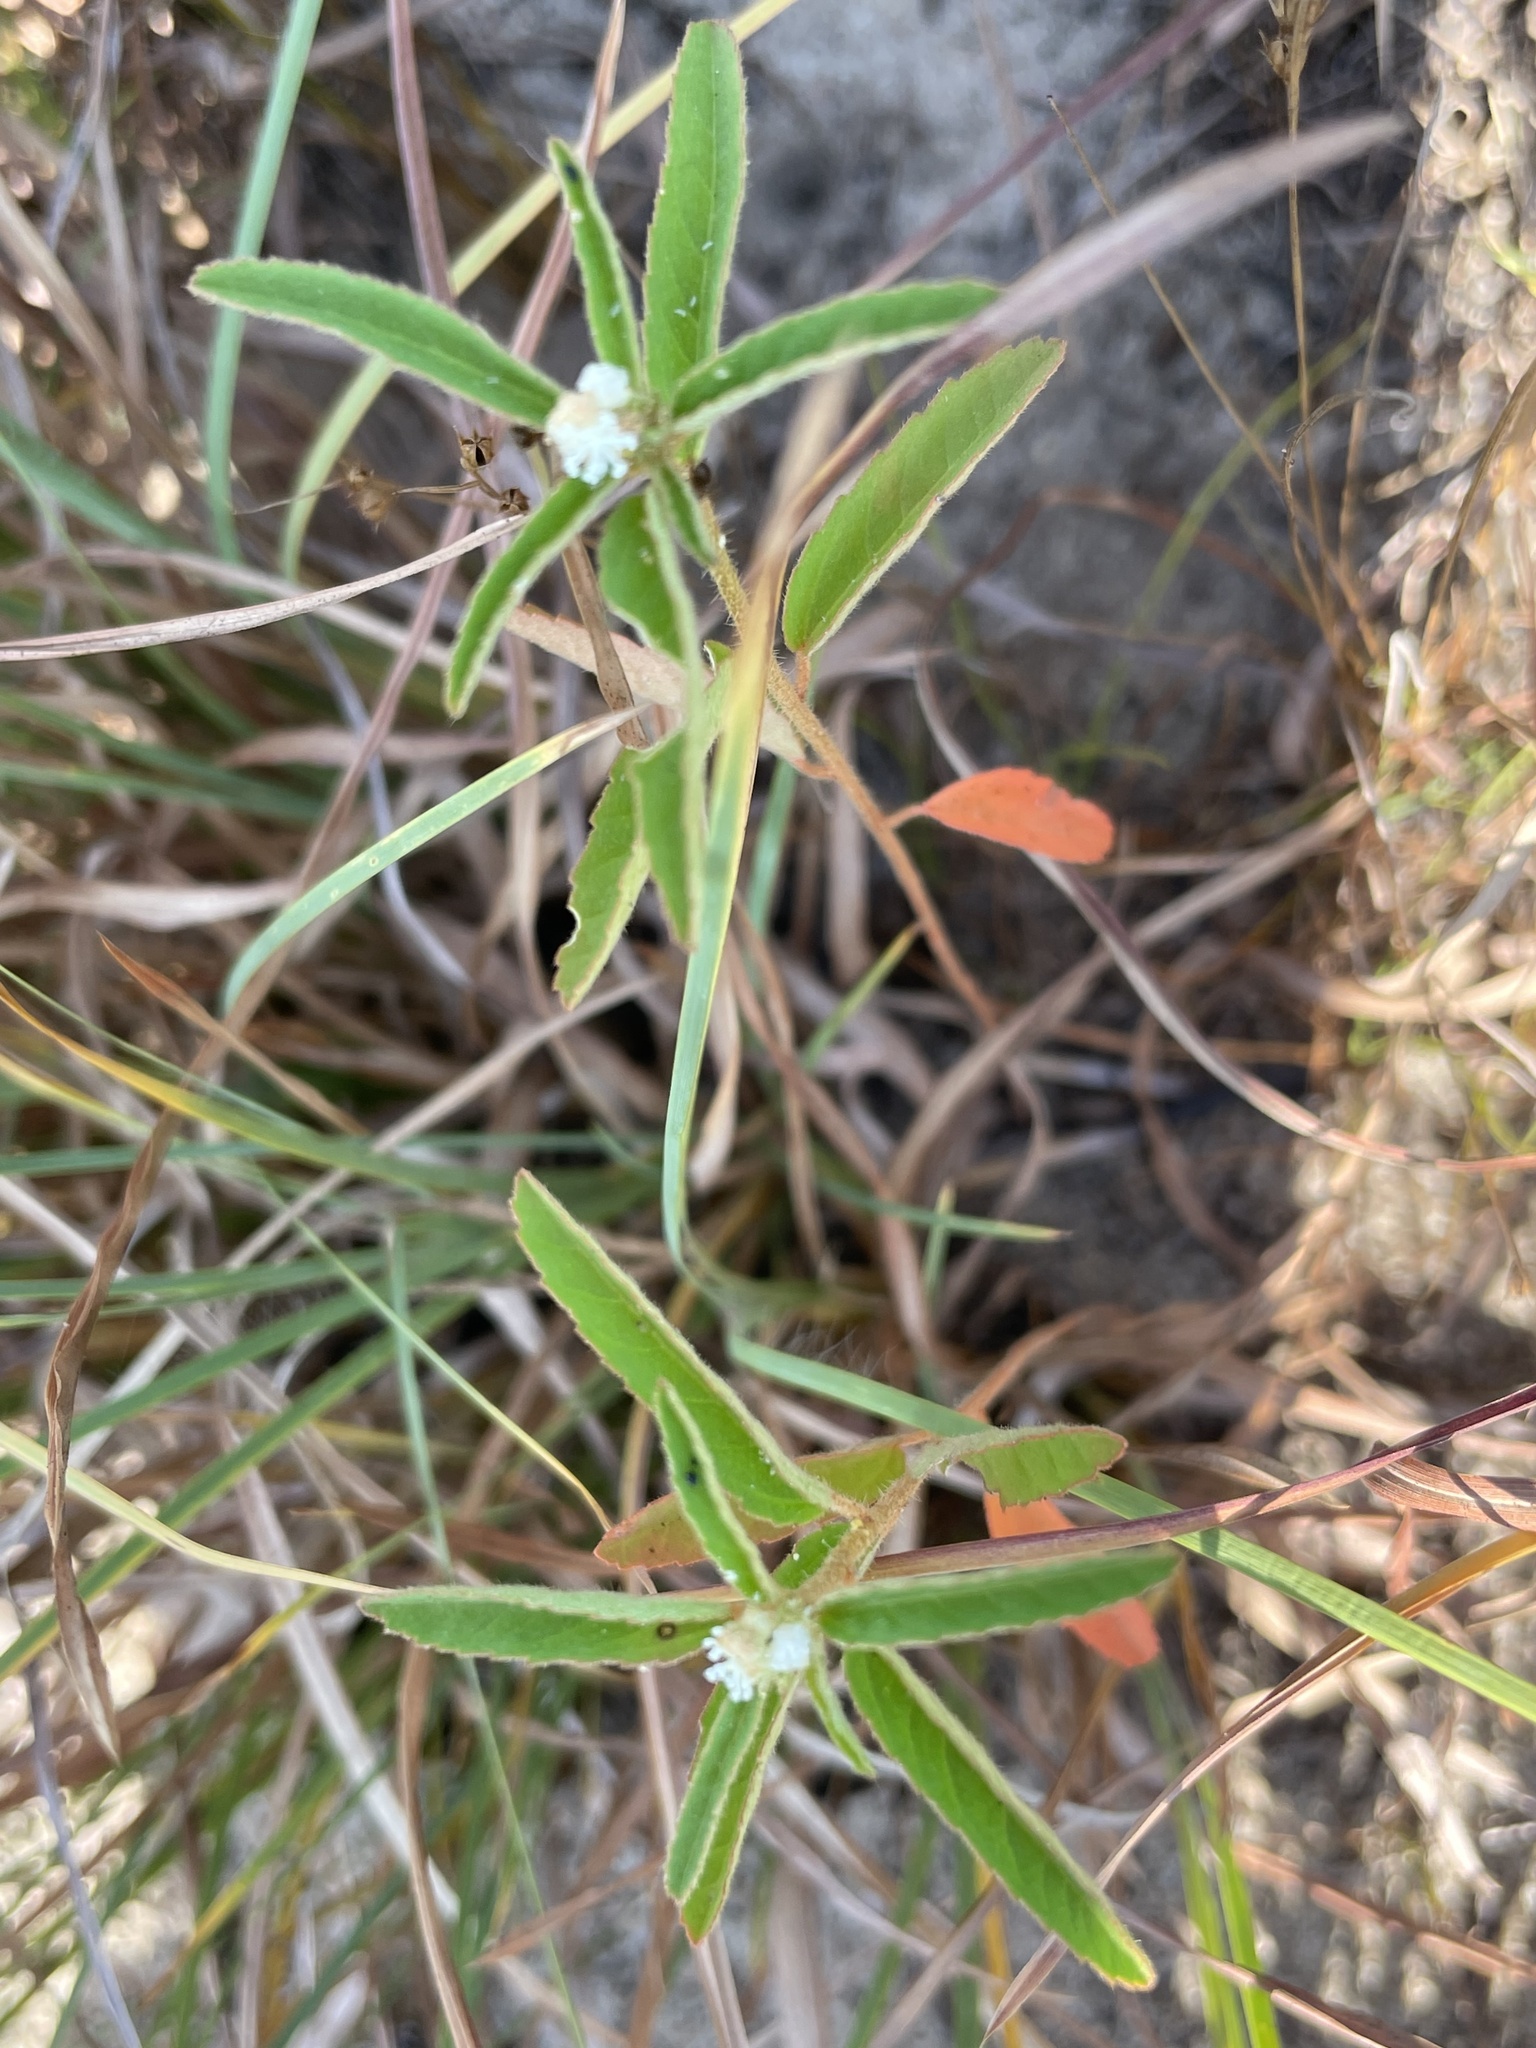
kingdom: Plantae
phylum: Tracheophyta
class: Magnoliopsida
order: Malpighiales
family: Euphorbiaceae
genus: Croton
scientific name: Croton glandulosus
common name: Tropic croton
